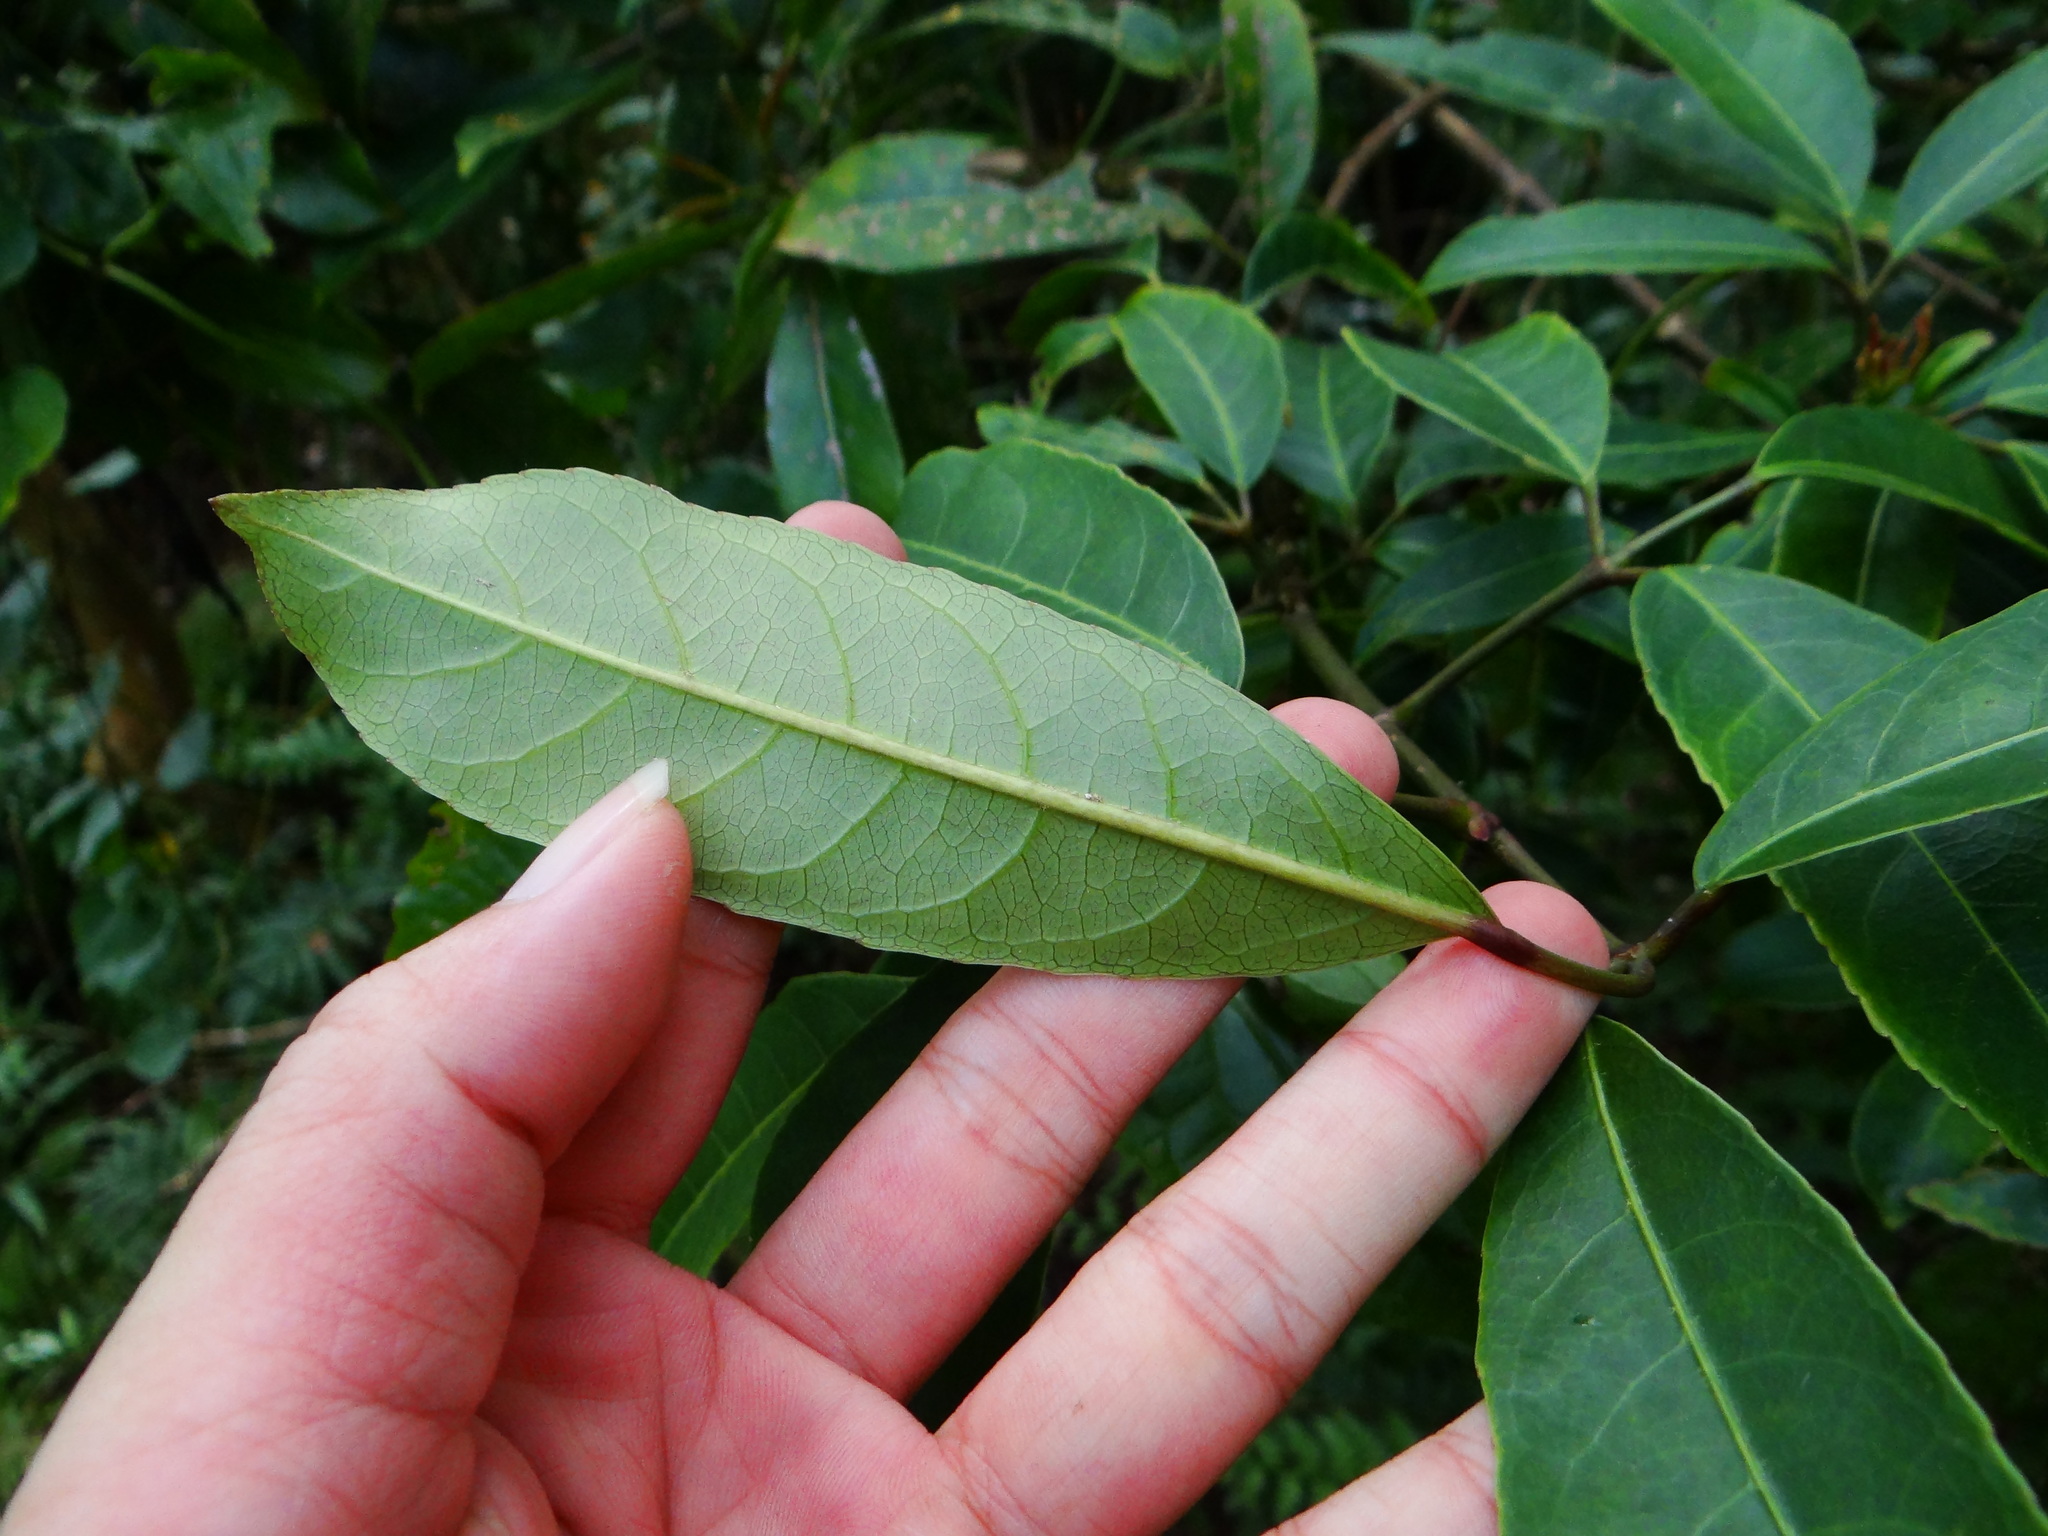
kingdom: Plantae
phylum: Tracheophyta
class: Magnoliopsida
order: Crossosomatales
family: Staphyleaceae
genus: Turpinia
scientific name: Turpinia ternata
